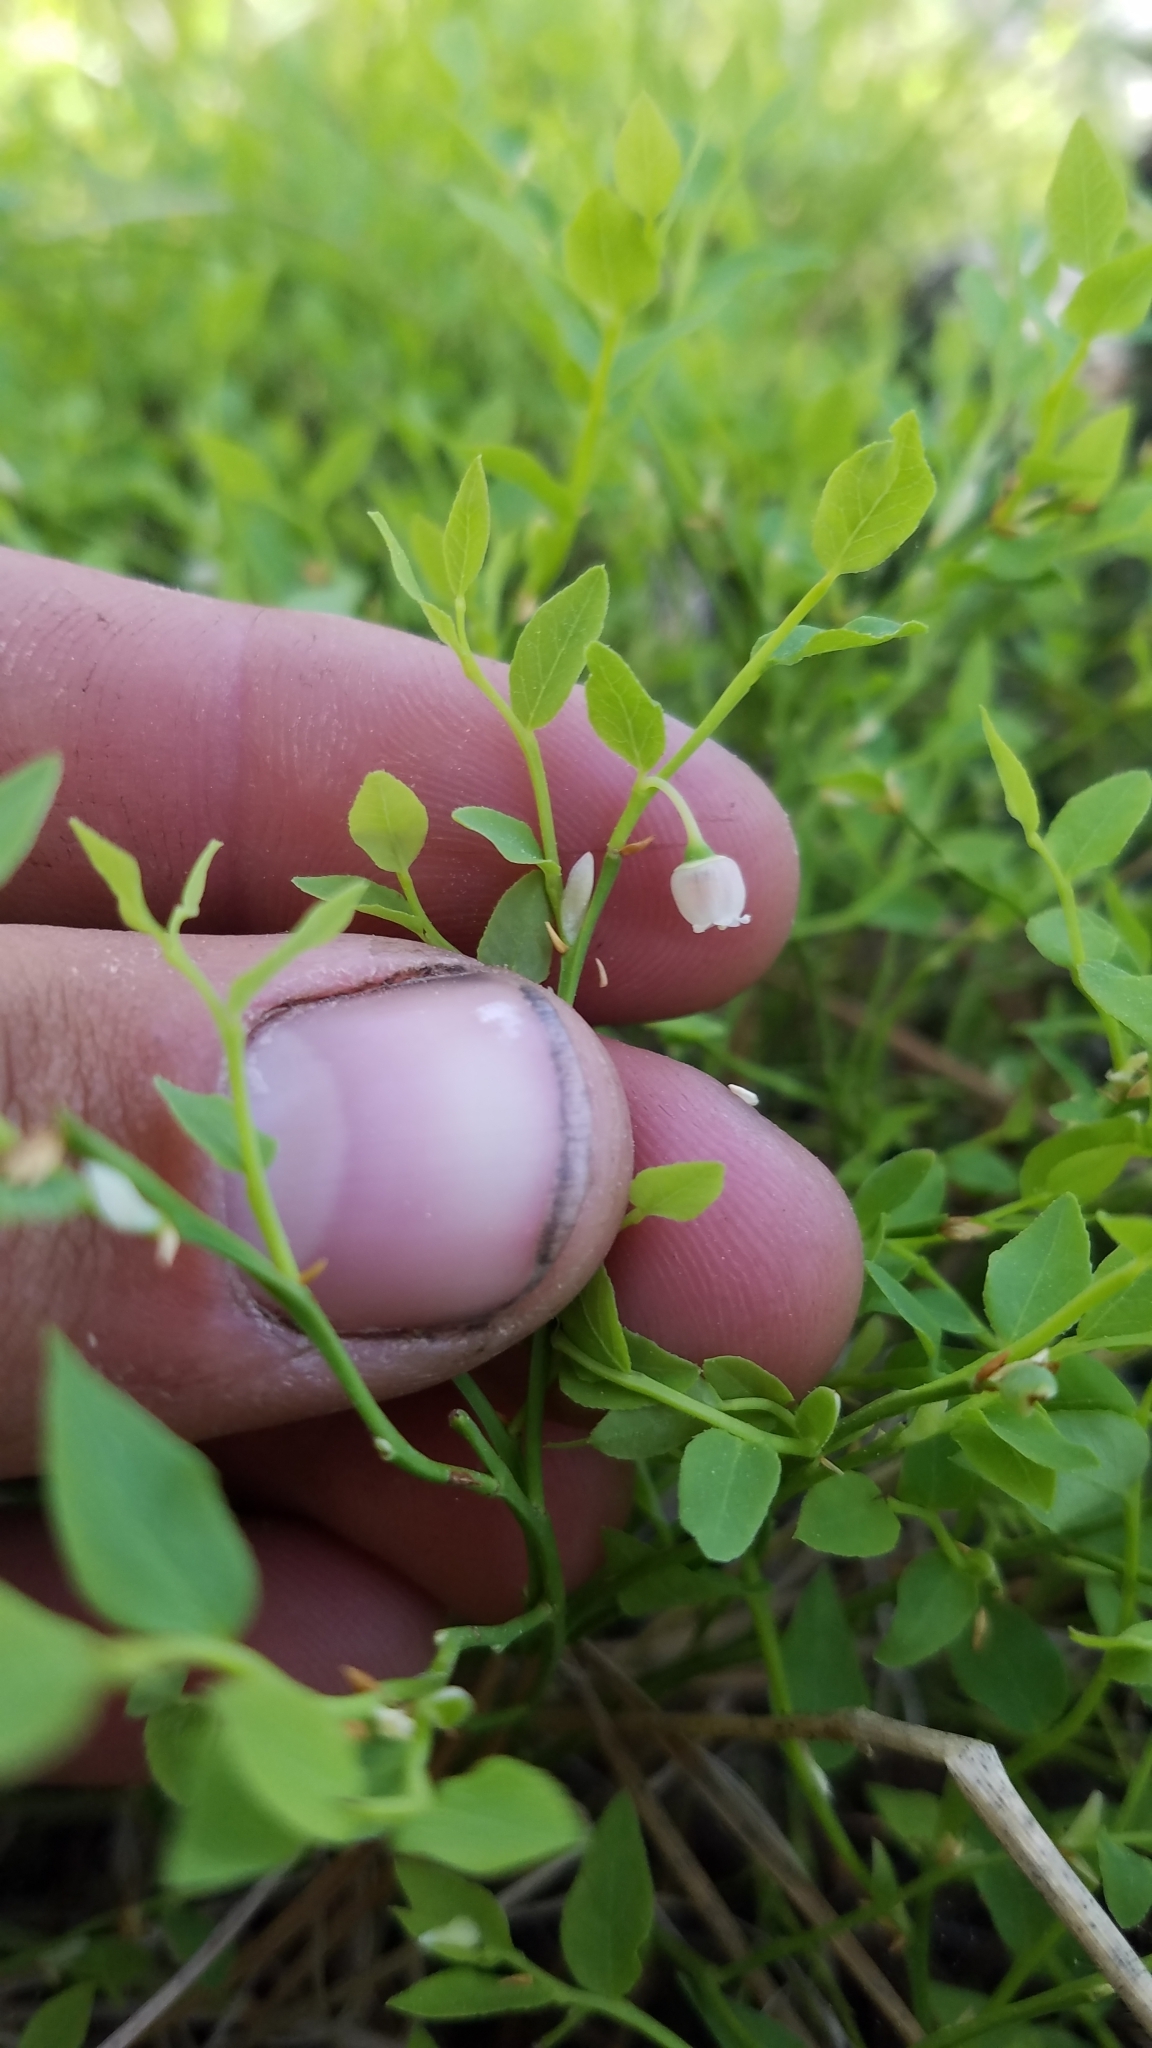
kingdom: Plantae
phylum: Tracheophyta
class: Magnoliopsida
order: Ericales
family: Ericaceae
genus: Vaccinium
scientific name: Vaccinium scoparium
